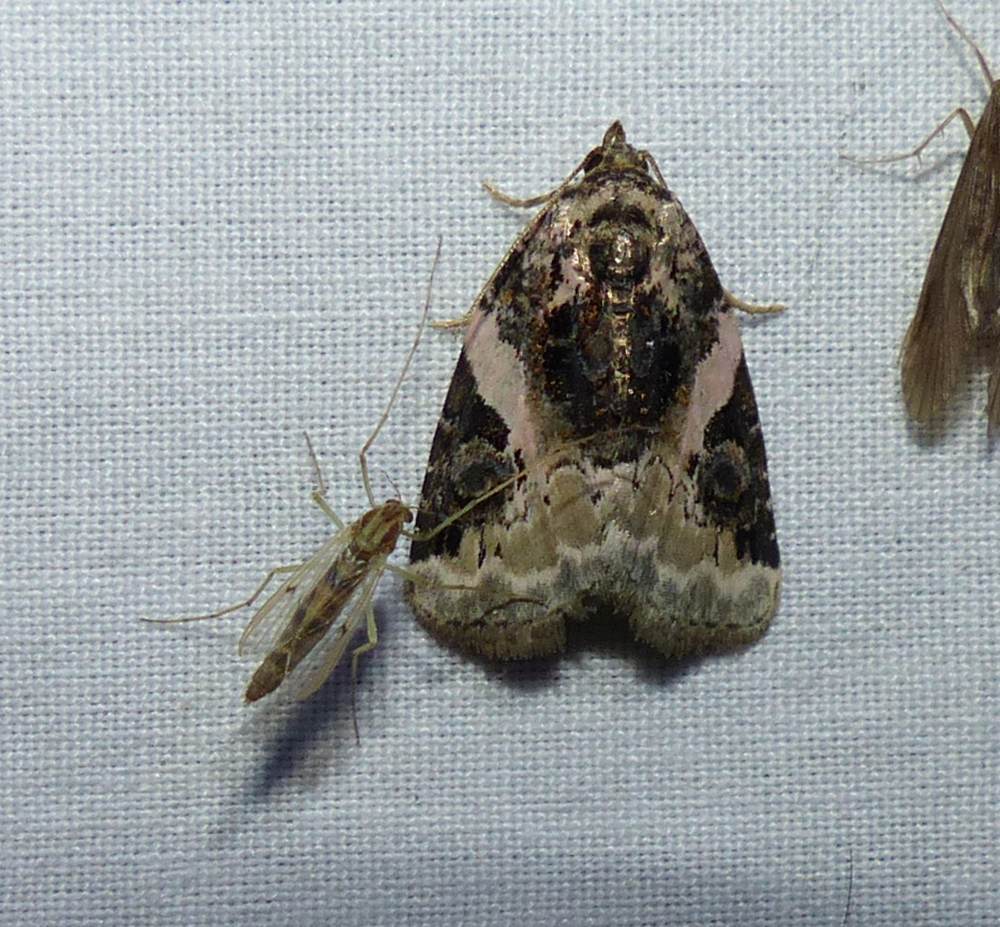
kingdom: Animalia
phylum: Arthropoda
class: Insecta
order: Lepidoptera
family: Noctuidae
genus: Pseudeustrotia
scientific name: Pseudeustrotia carneola
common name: Pink-barred lithacodia moth
